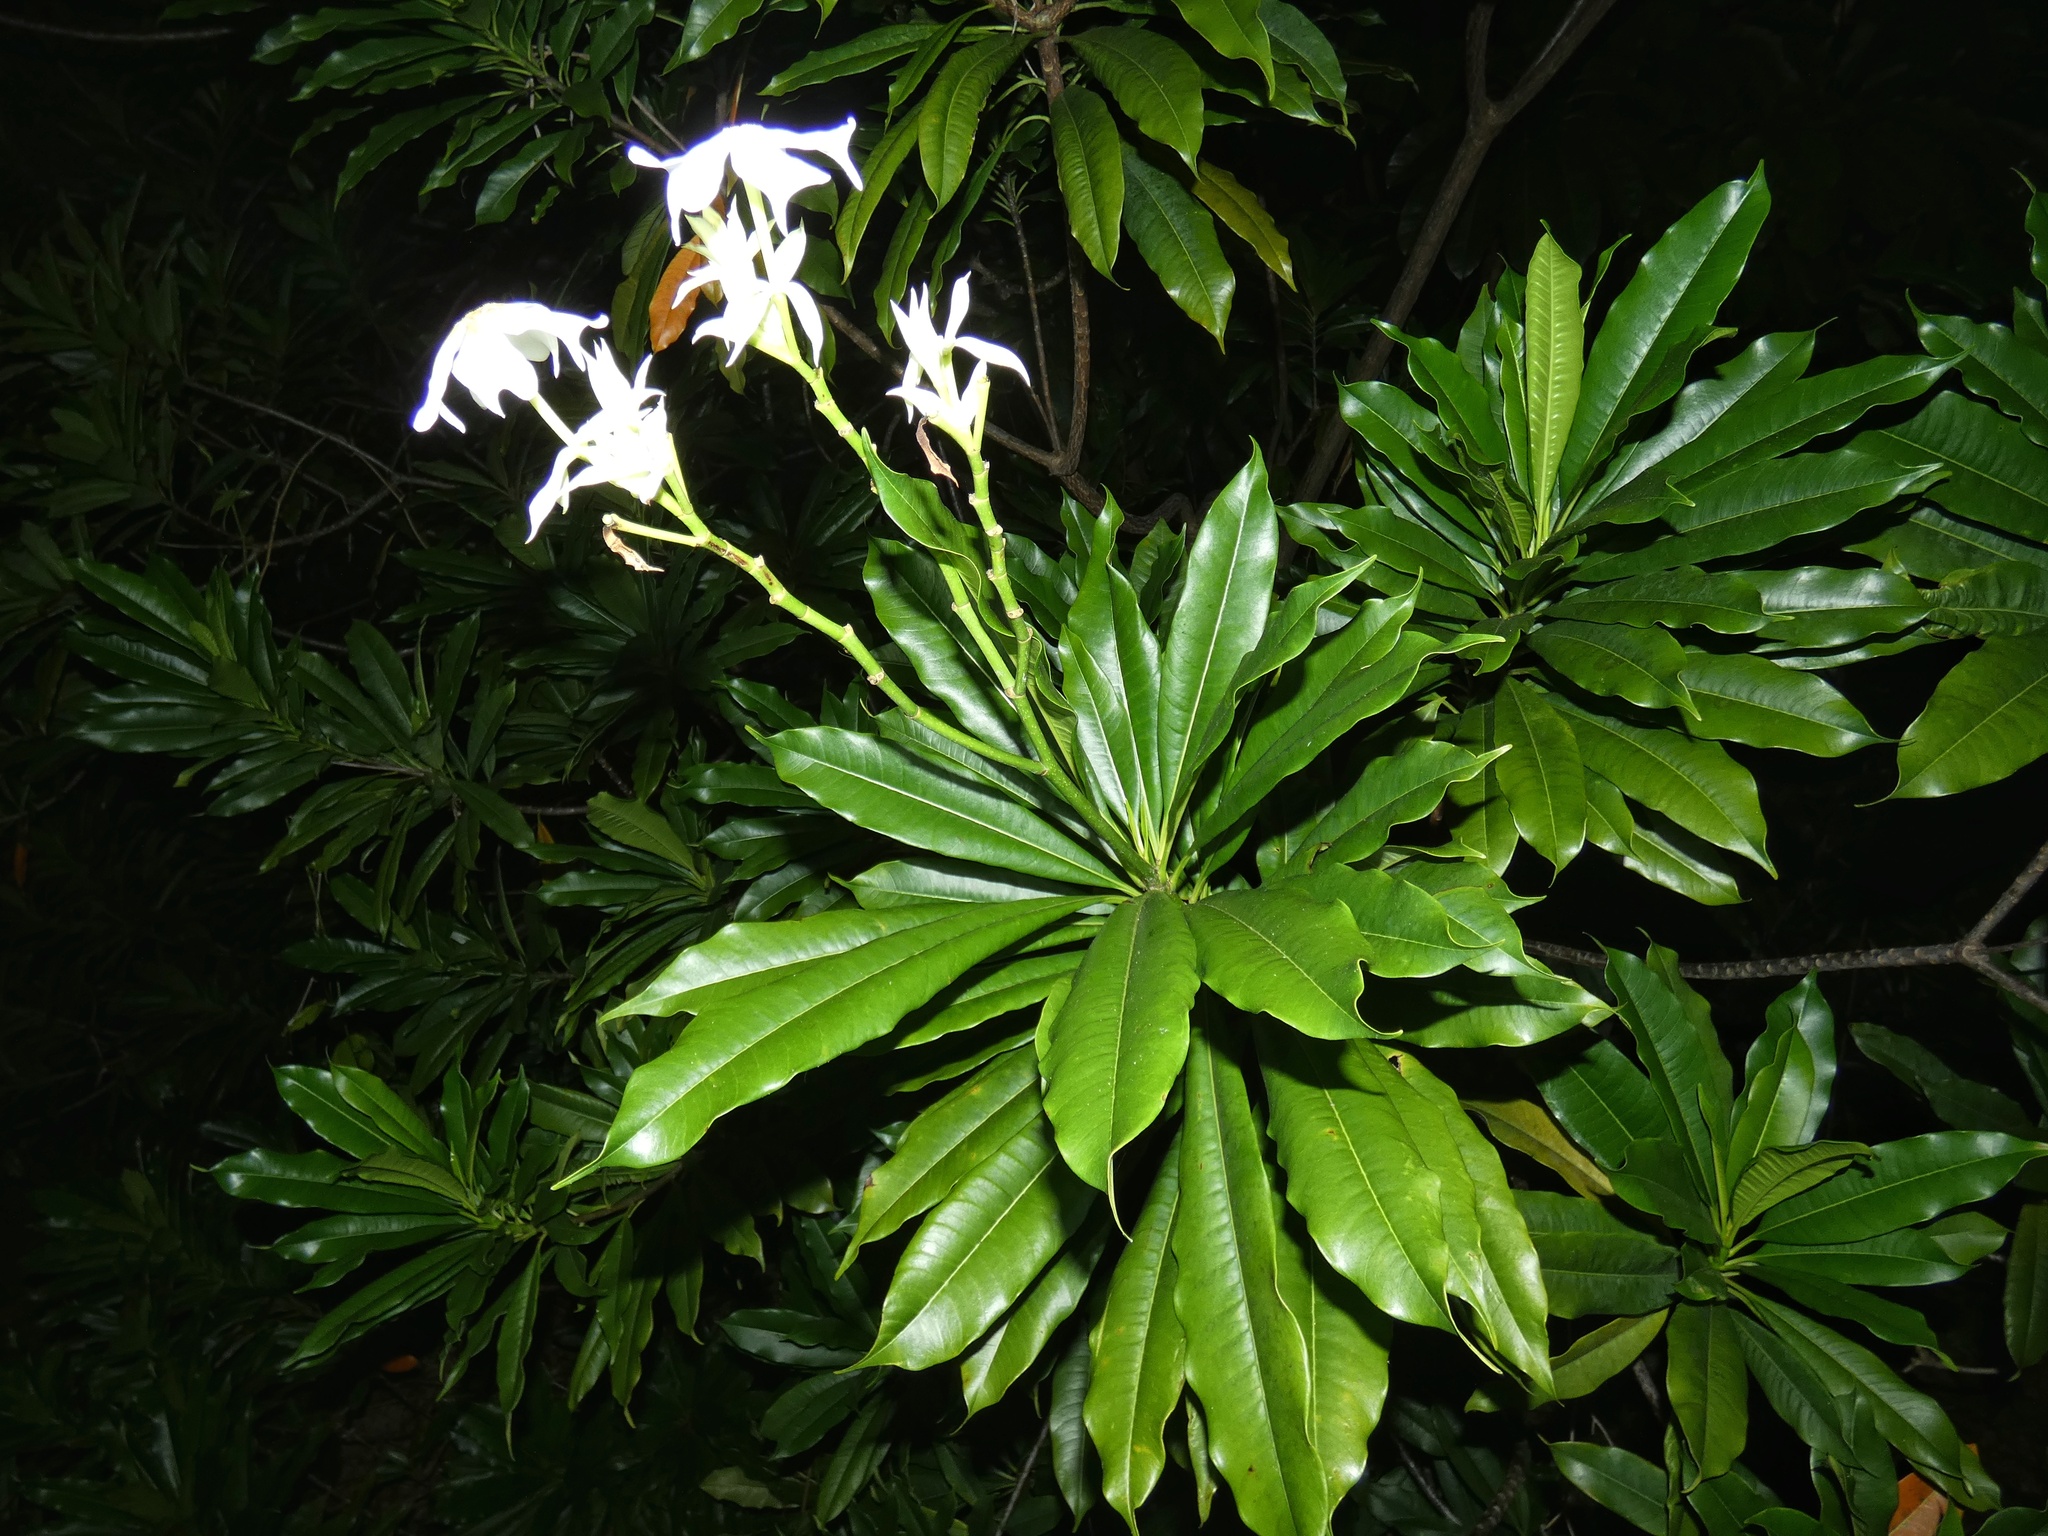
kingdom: Plantae
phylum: Tracheophyta
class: Magnoliopsida
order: Gentianales
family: Apocynaceae
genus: Cerbera
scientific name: Cerbera manghas
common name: Reva
